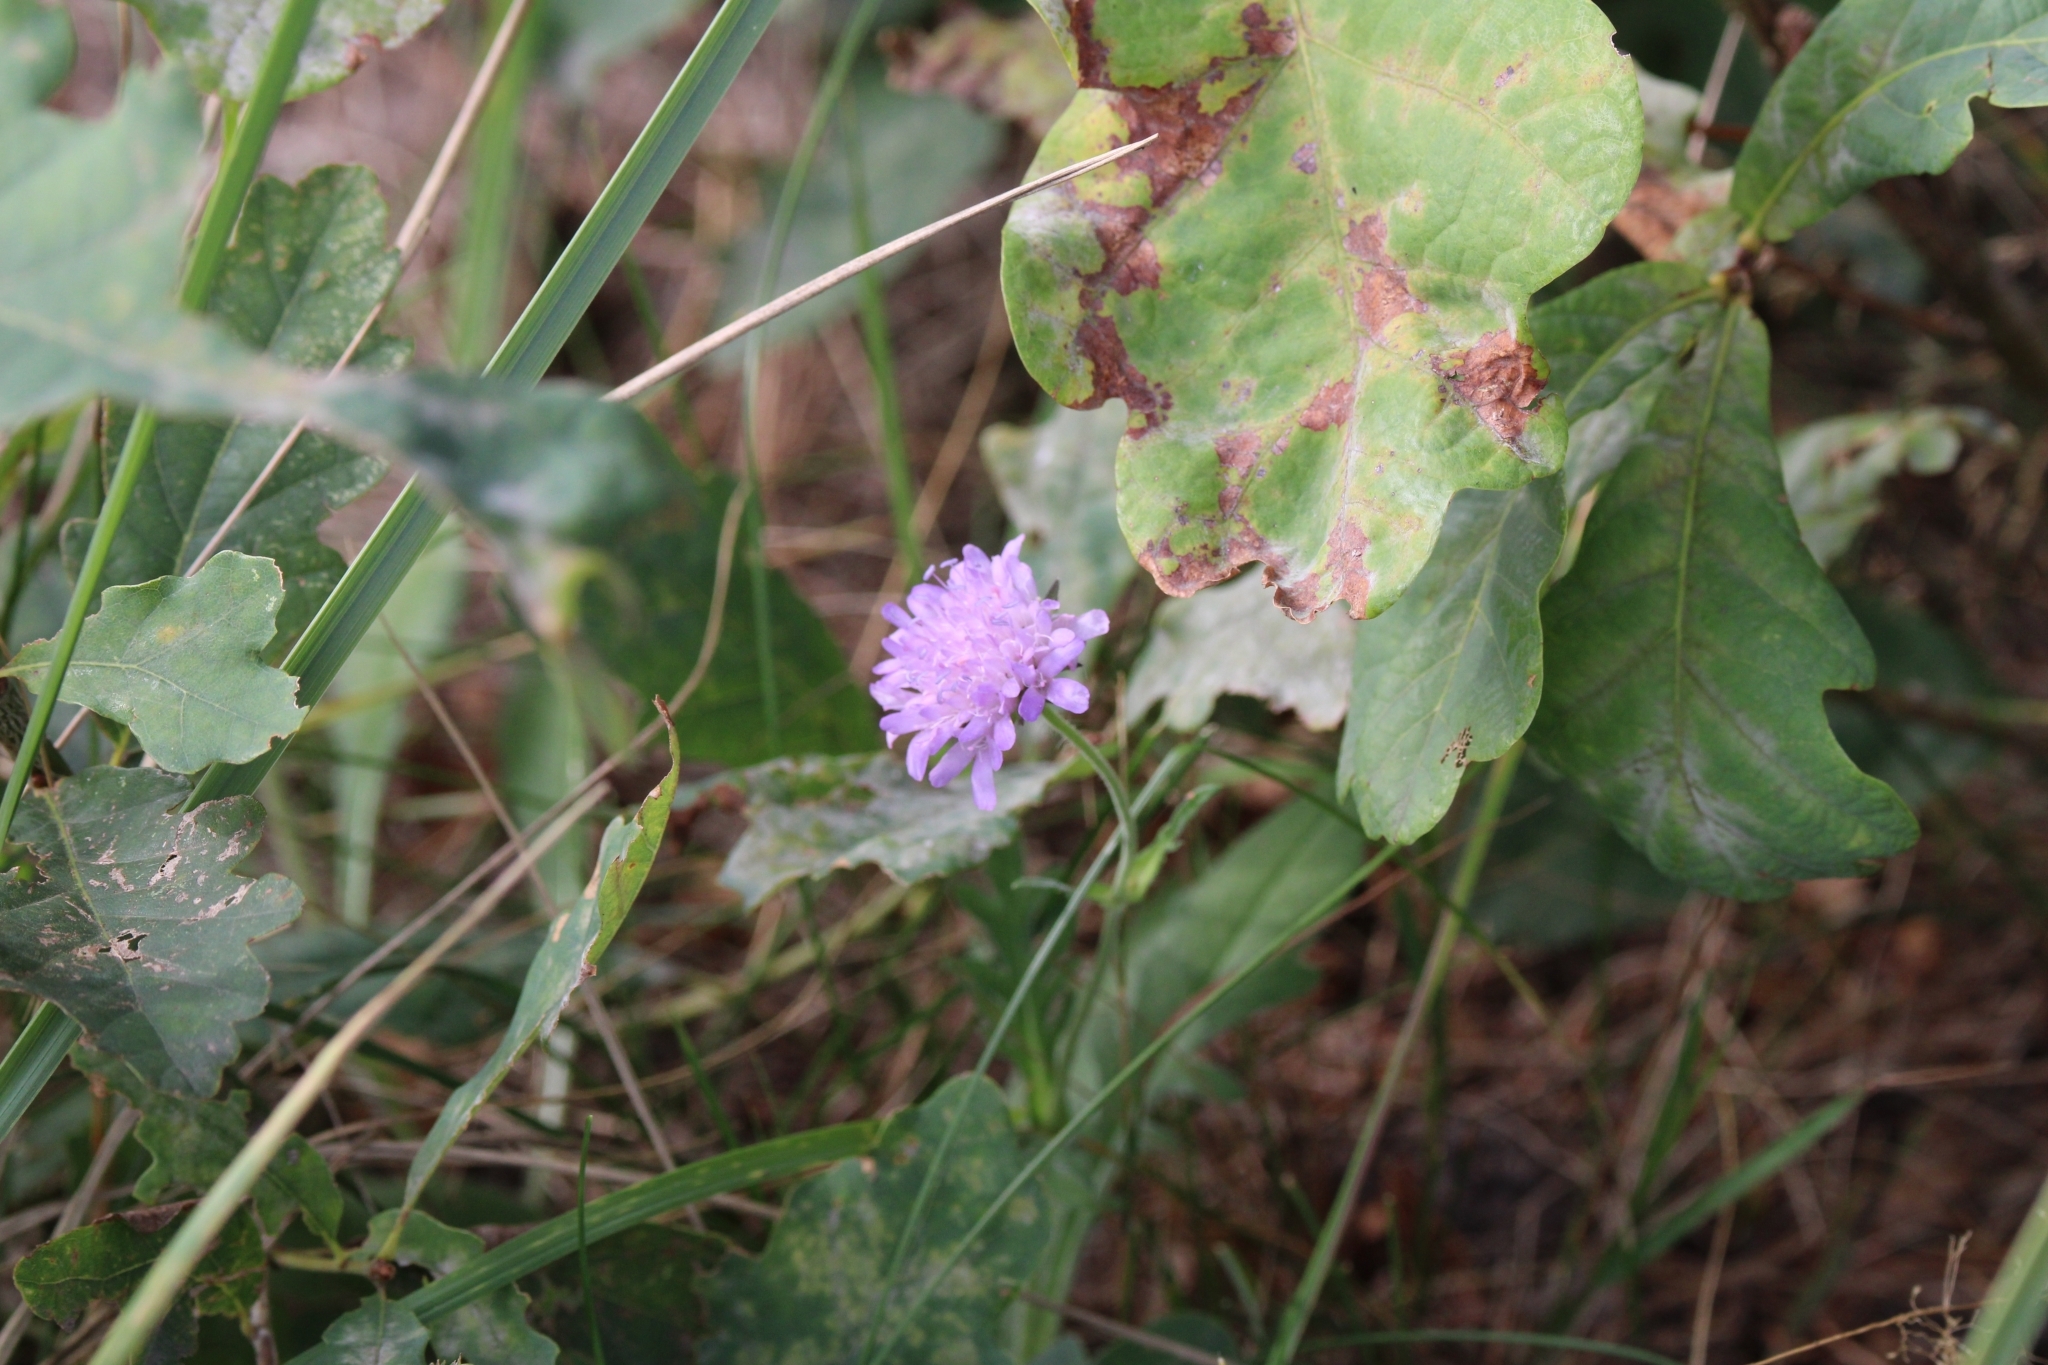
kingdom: Plantae
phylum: Tracheophyta
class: Magnoliopsida
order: Dipsacales
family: Caprifoliaceae
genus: Knautia
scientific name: Knautia arvensis
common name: Field scabiosa
